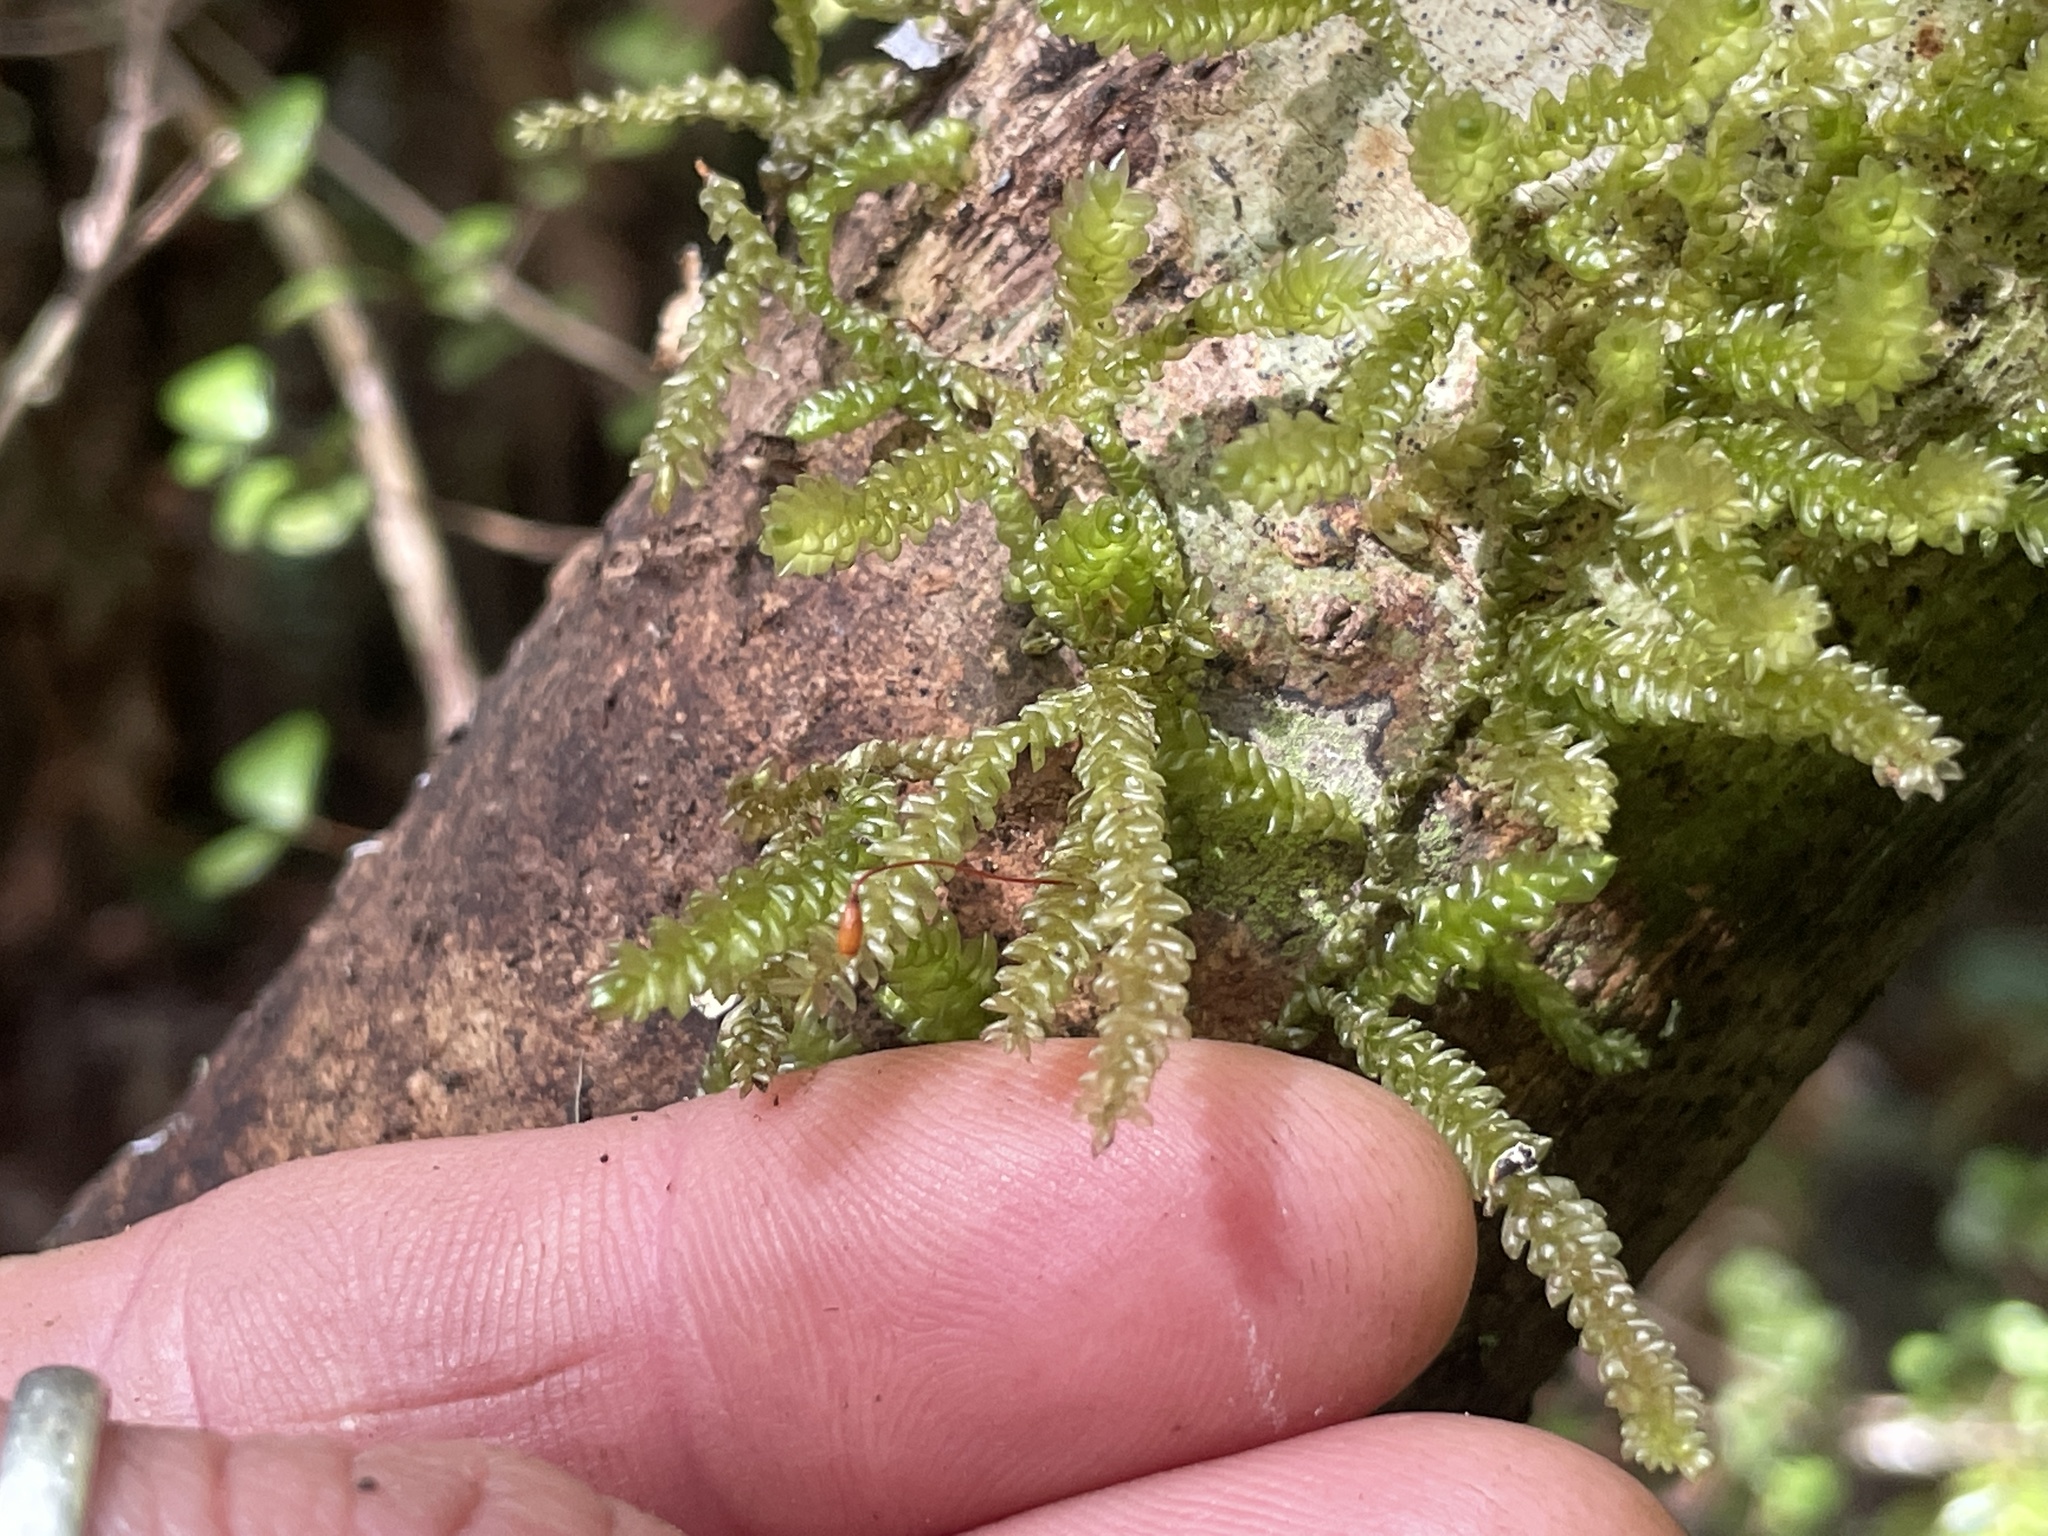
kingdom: Plantae
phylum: Bryophyta
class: Bryopsida
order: Hypnales
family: Lembophyllaceae
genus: Weymouthia
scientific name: Weymouthia cochlearifolia
